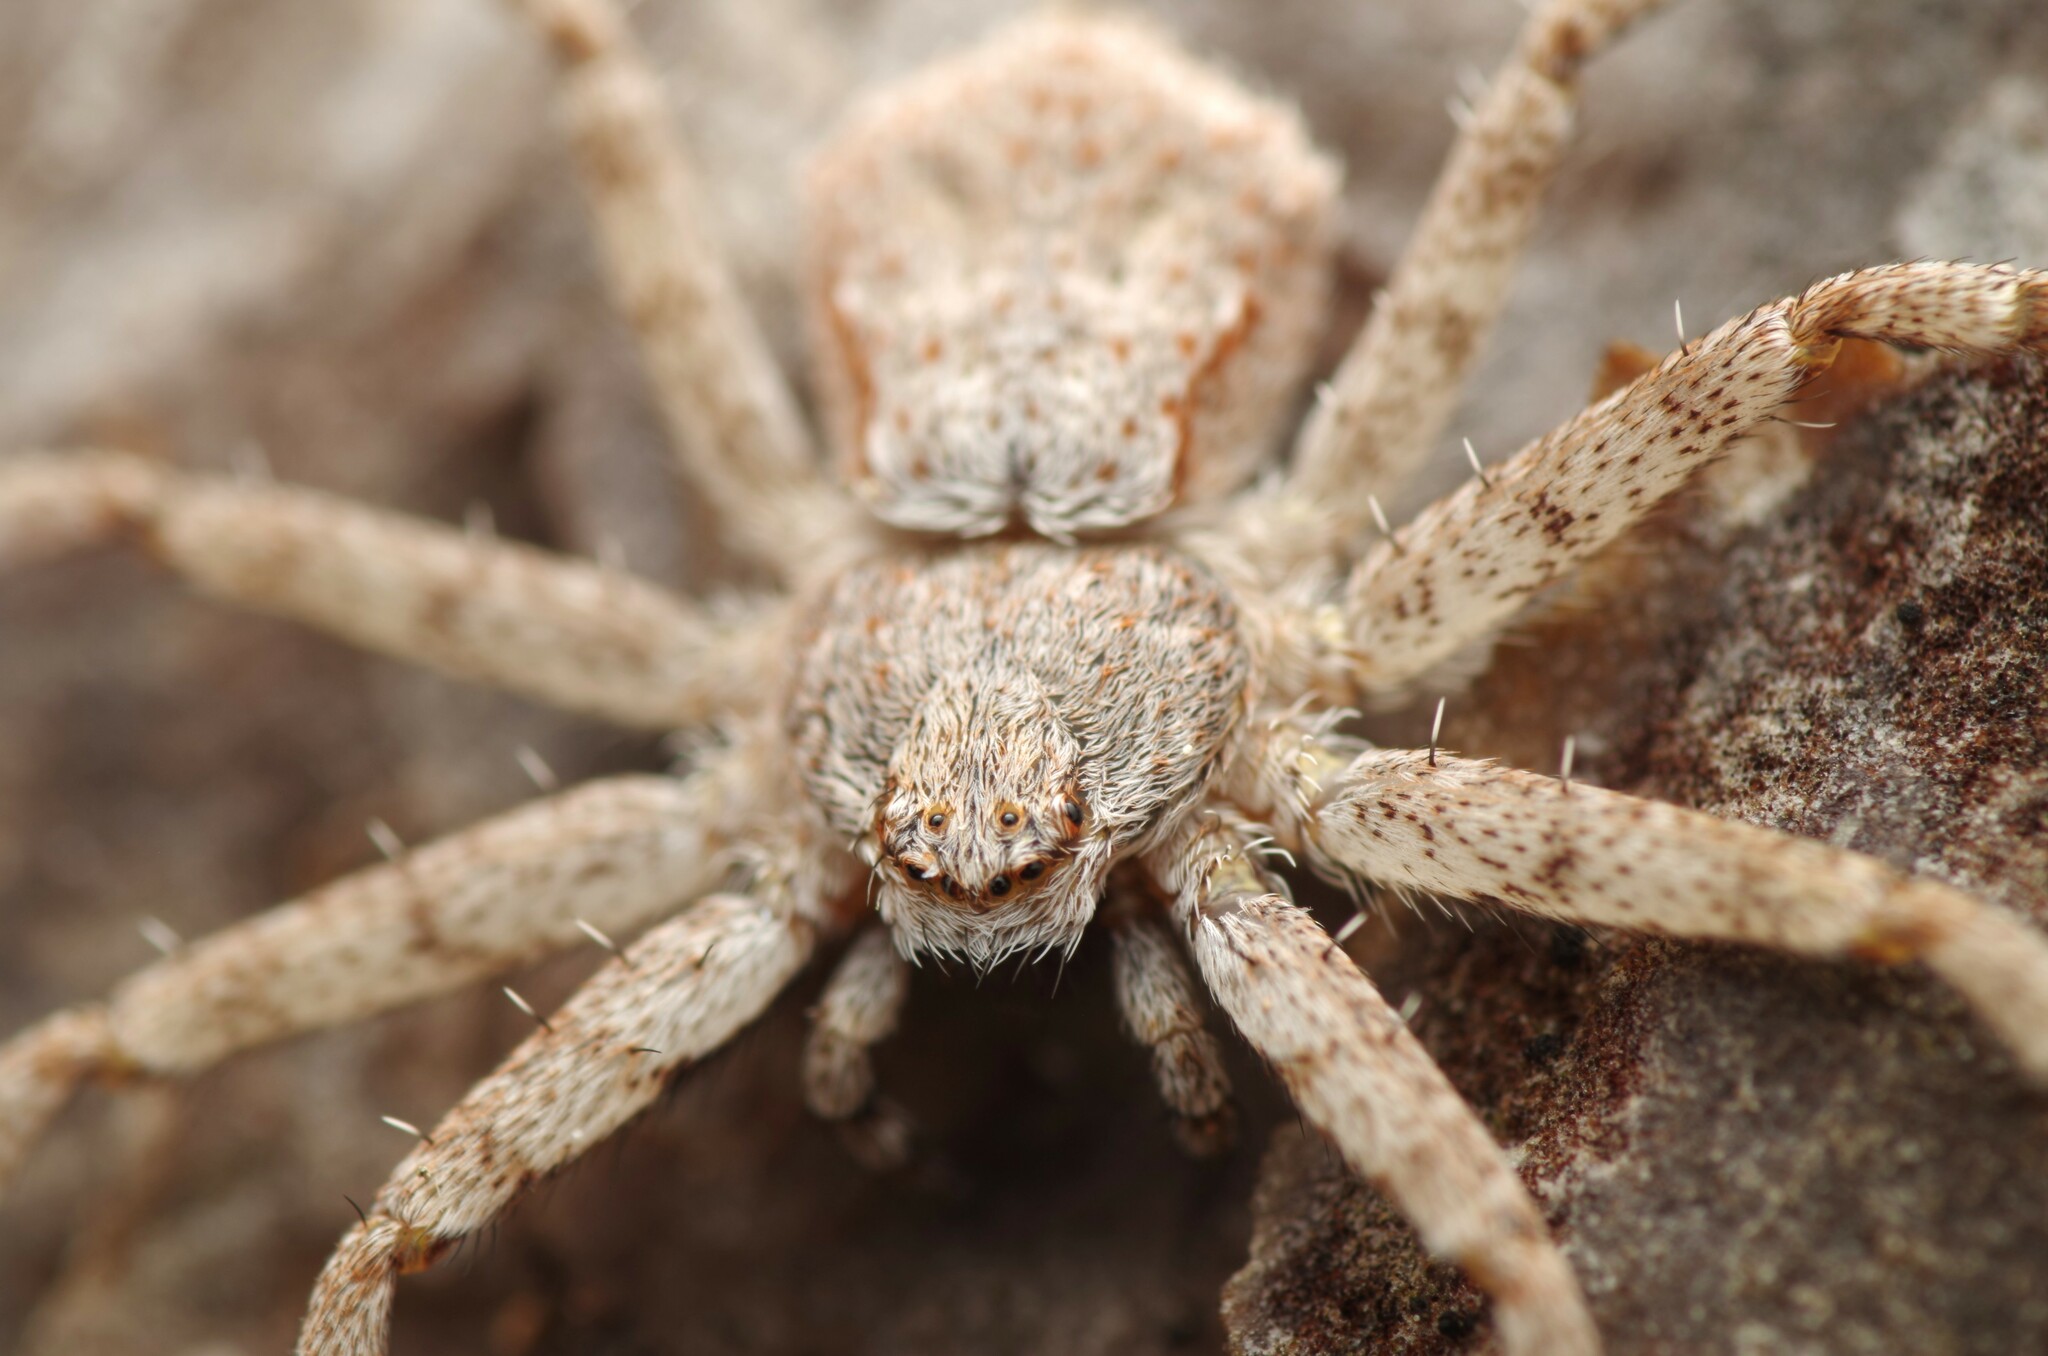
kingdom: Animalia
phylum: Arthropoda
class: Arachnida
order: Araneae
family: Philodromidae
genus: Philodromus
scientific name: Philodromus parietalis
